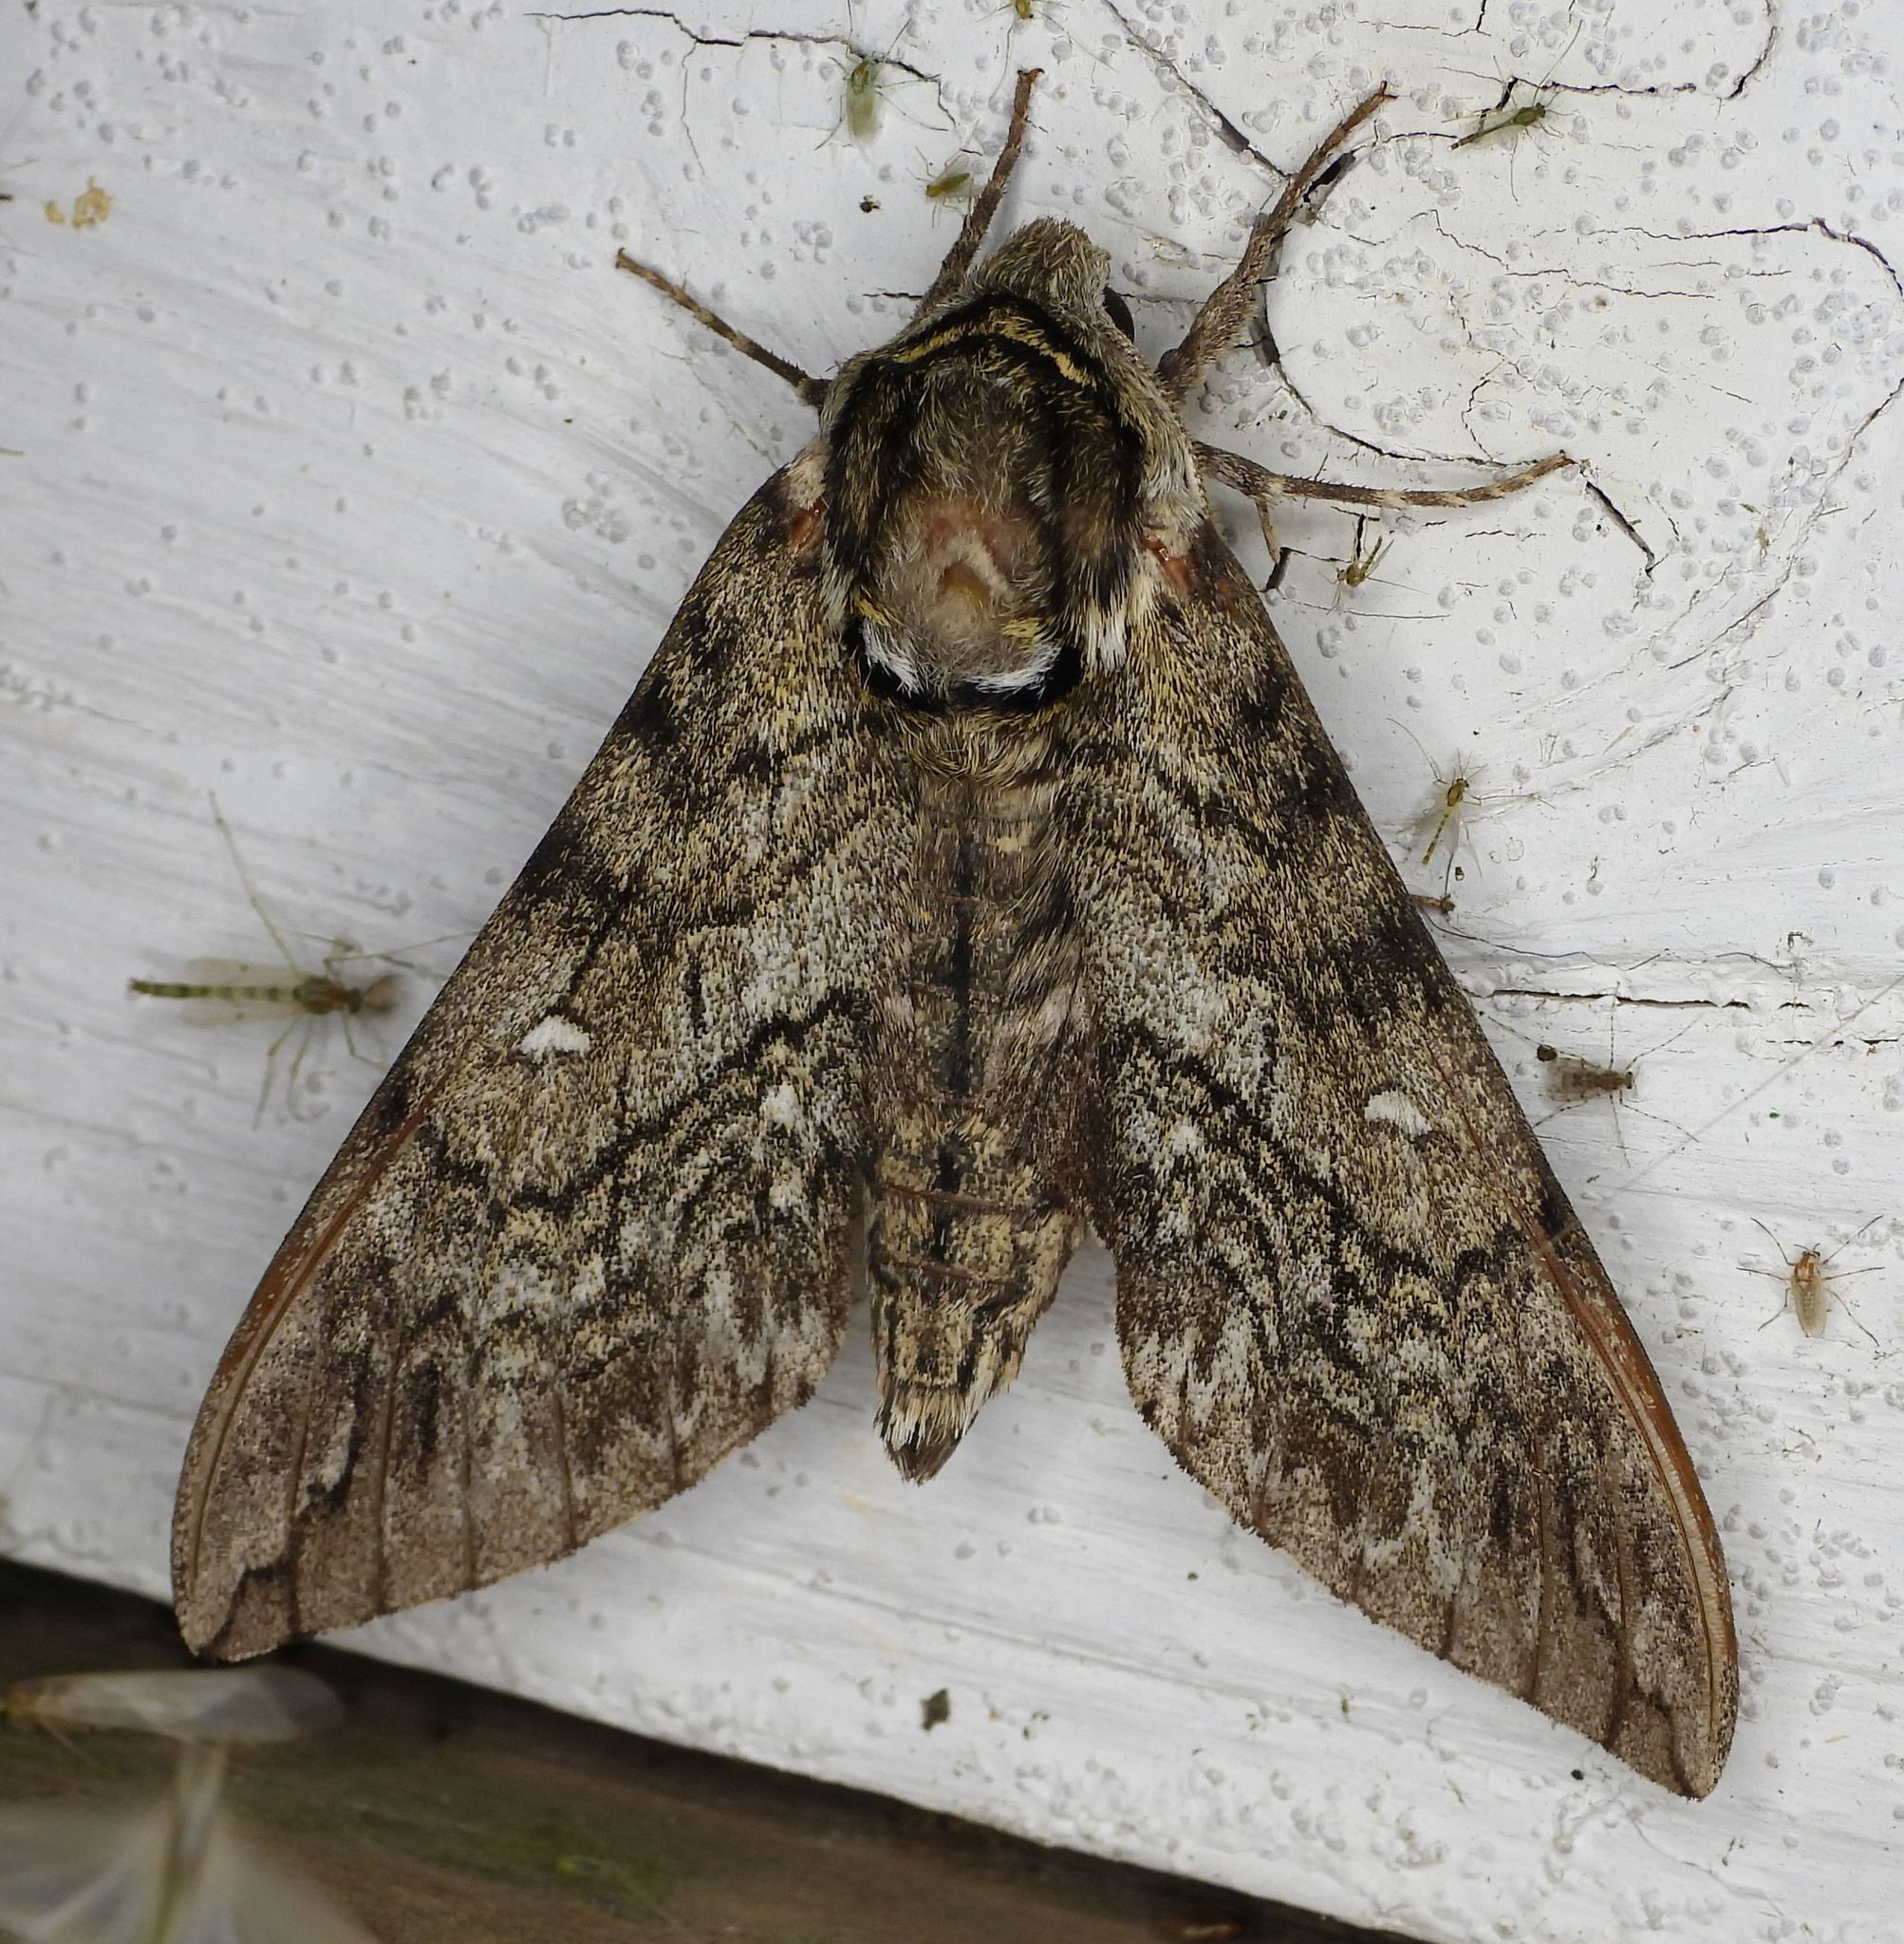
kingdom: Animalia
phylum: Arthropoda
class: Insecta
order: Lepidoptera
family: Sphingidae
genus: Ceratomia
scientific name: Ceratomia undulosa
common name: Waved sphinx
